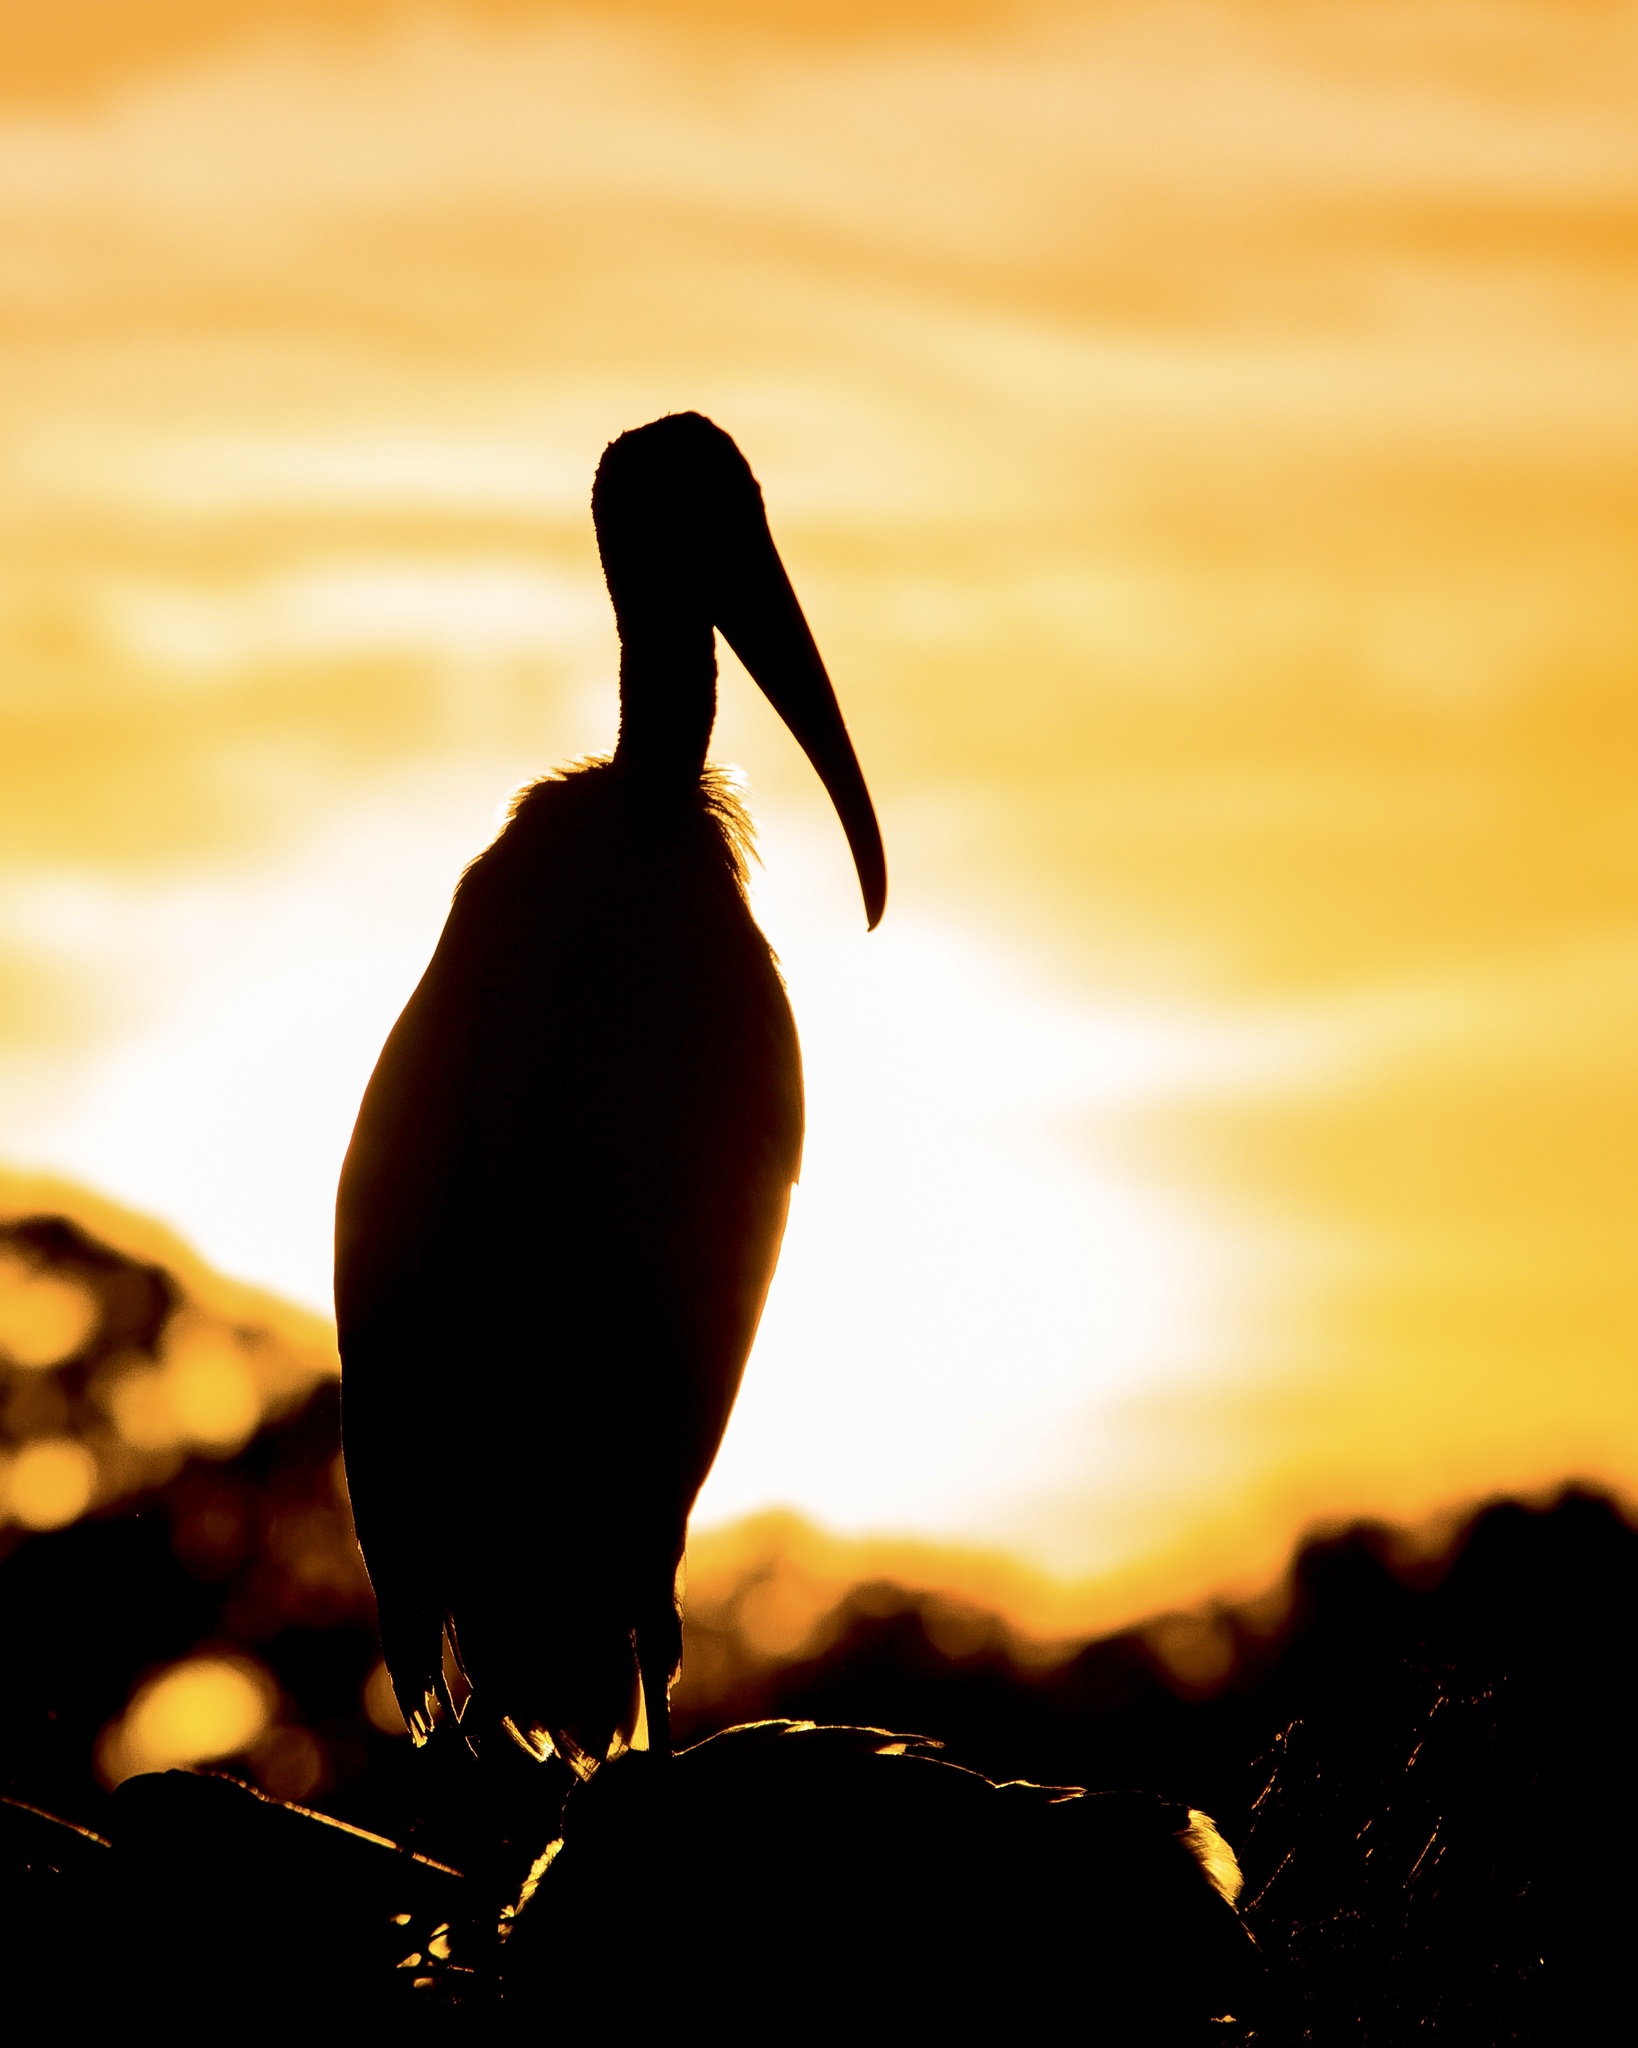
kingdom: Animalia
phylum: Chordata
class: Aves
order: Ciconiiformes
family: Ciconiidae
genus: Mycteria
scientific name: Mycteria americana
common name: Wood stork
